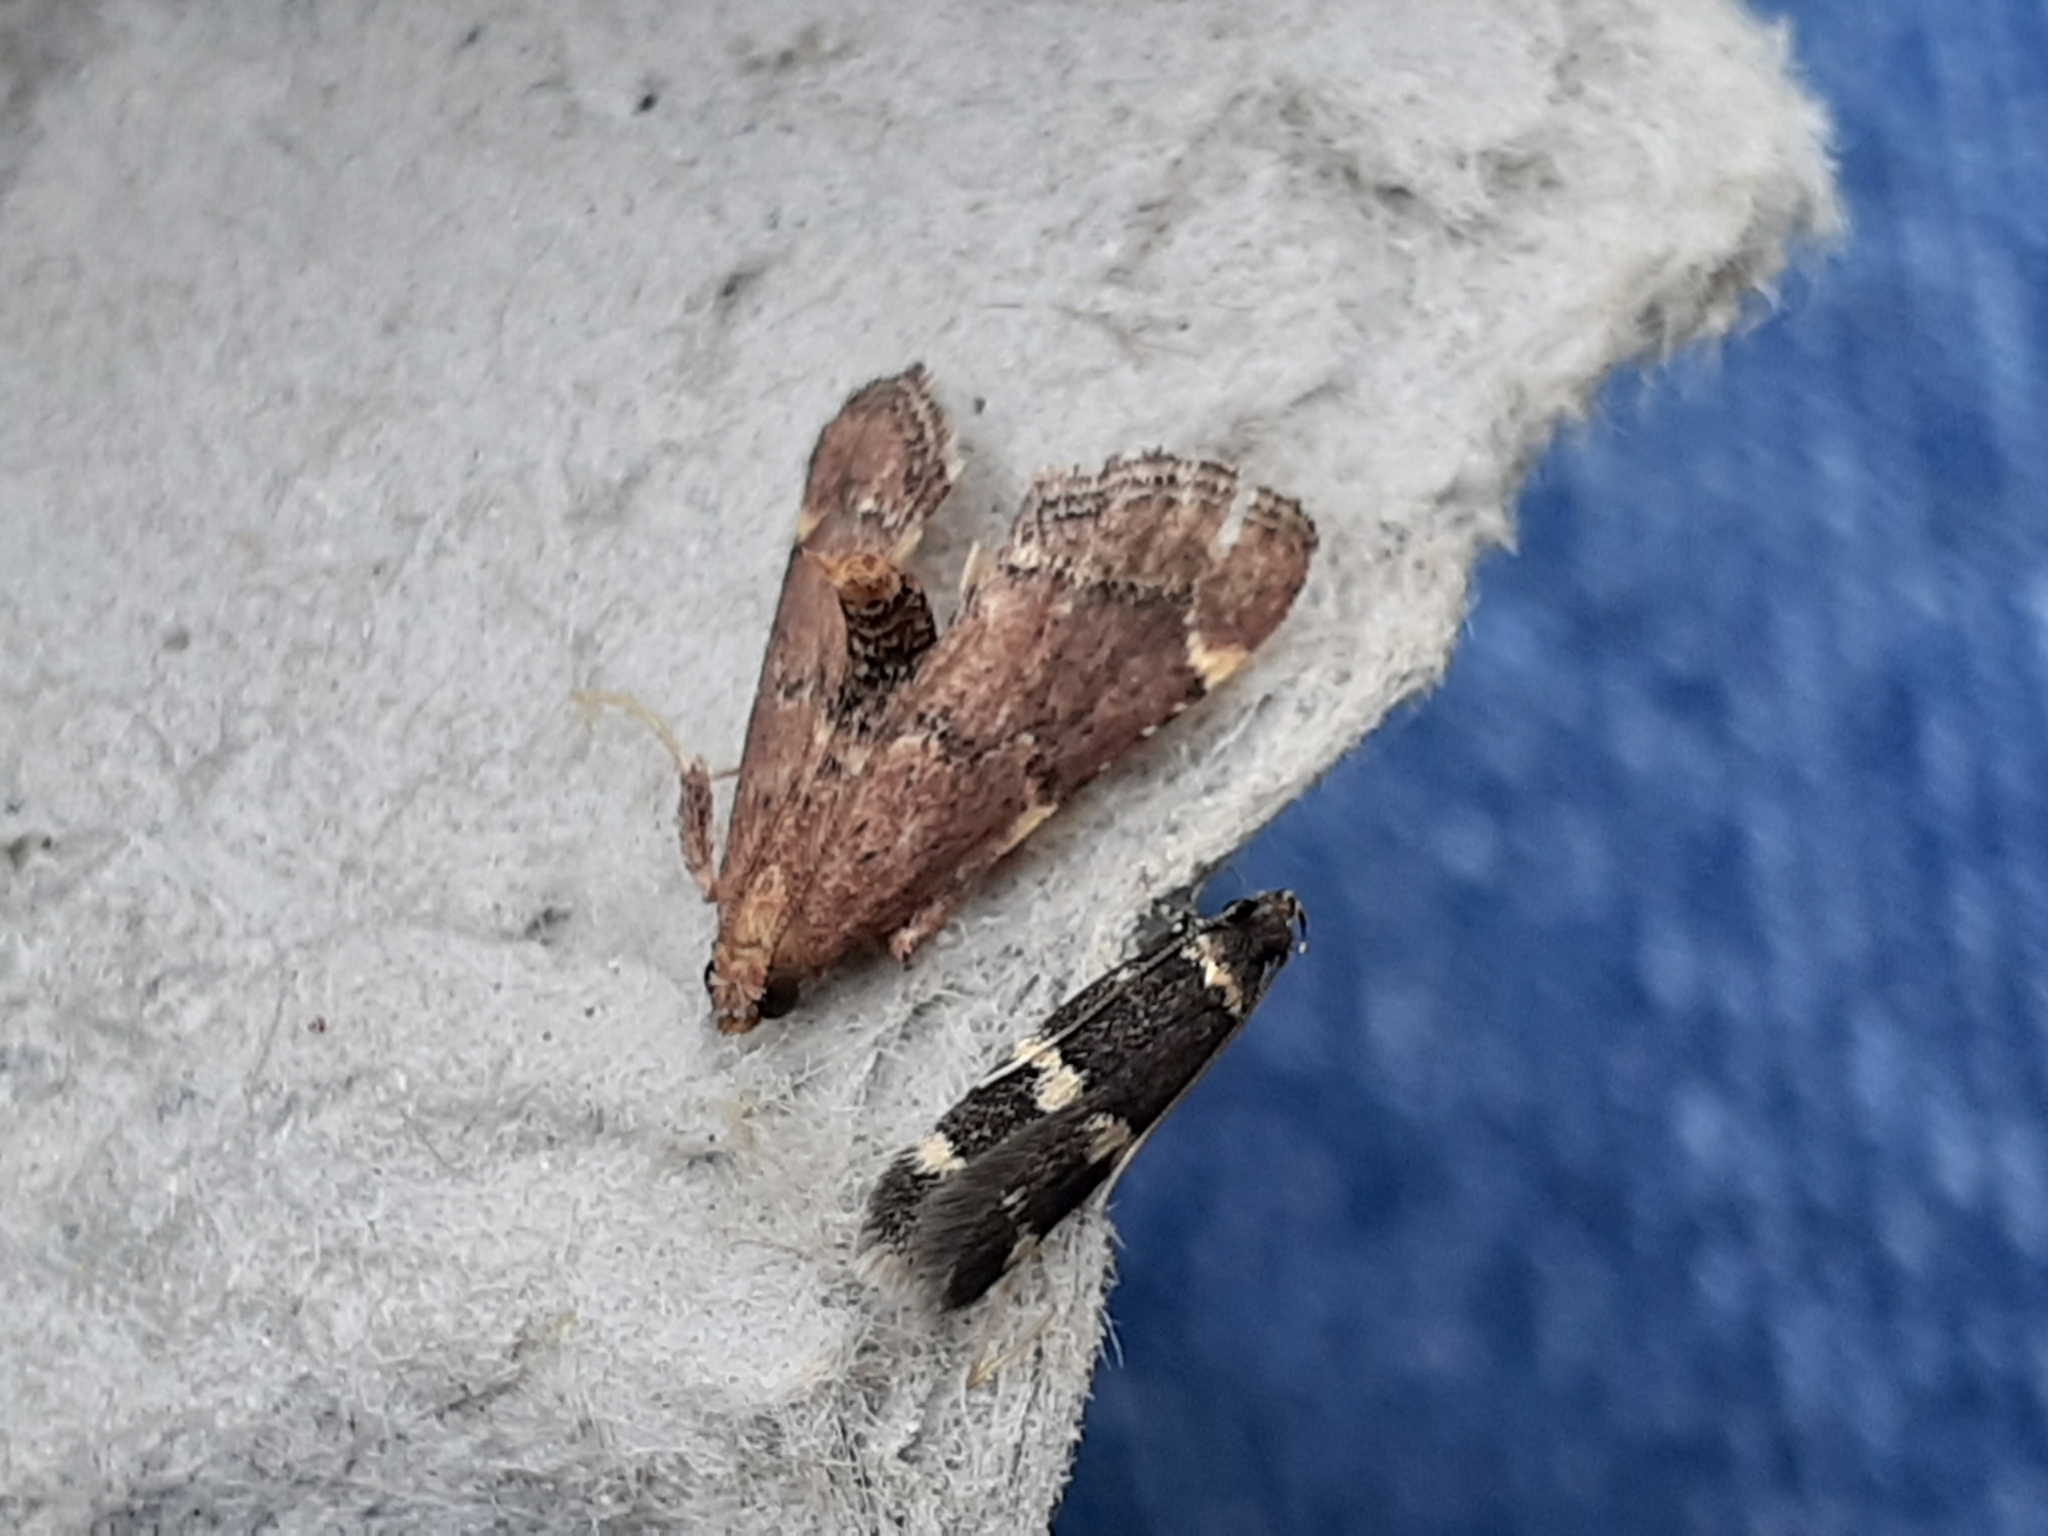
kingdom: Animalia
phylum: Arthropoda
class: Insecta
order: Lepidoptera
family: Pyralidae
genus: Hypsopygia
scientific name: Hypsopygia intermedialis
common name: Red-shawled moth
